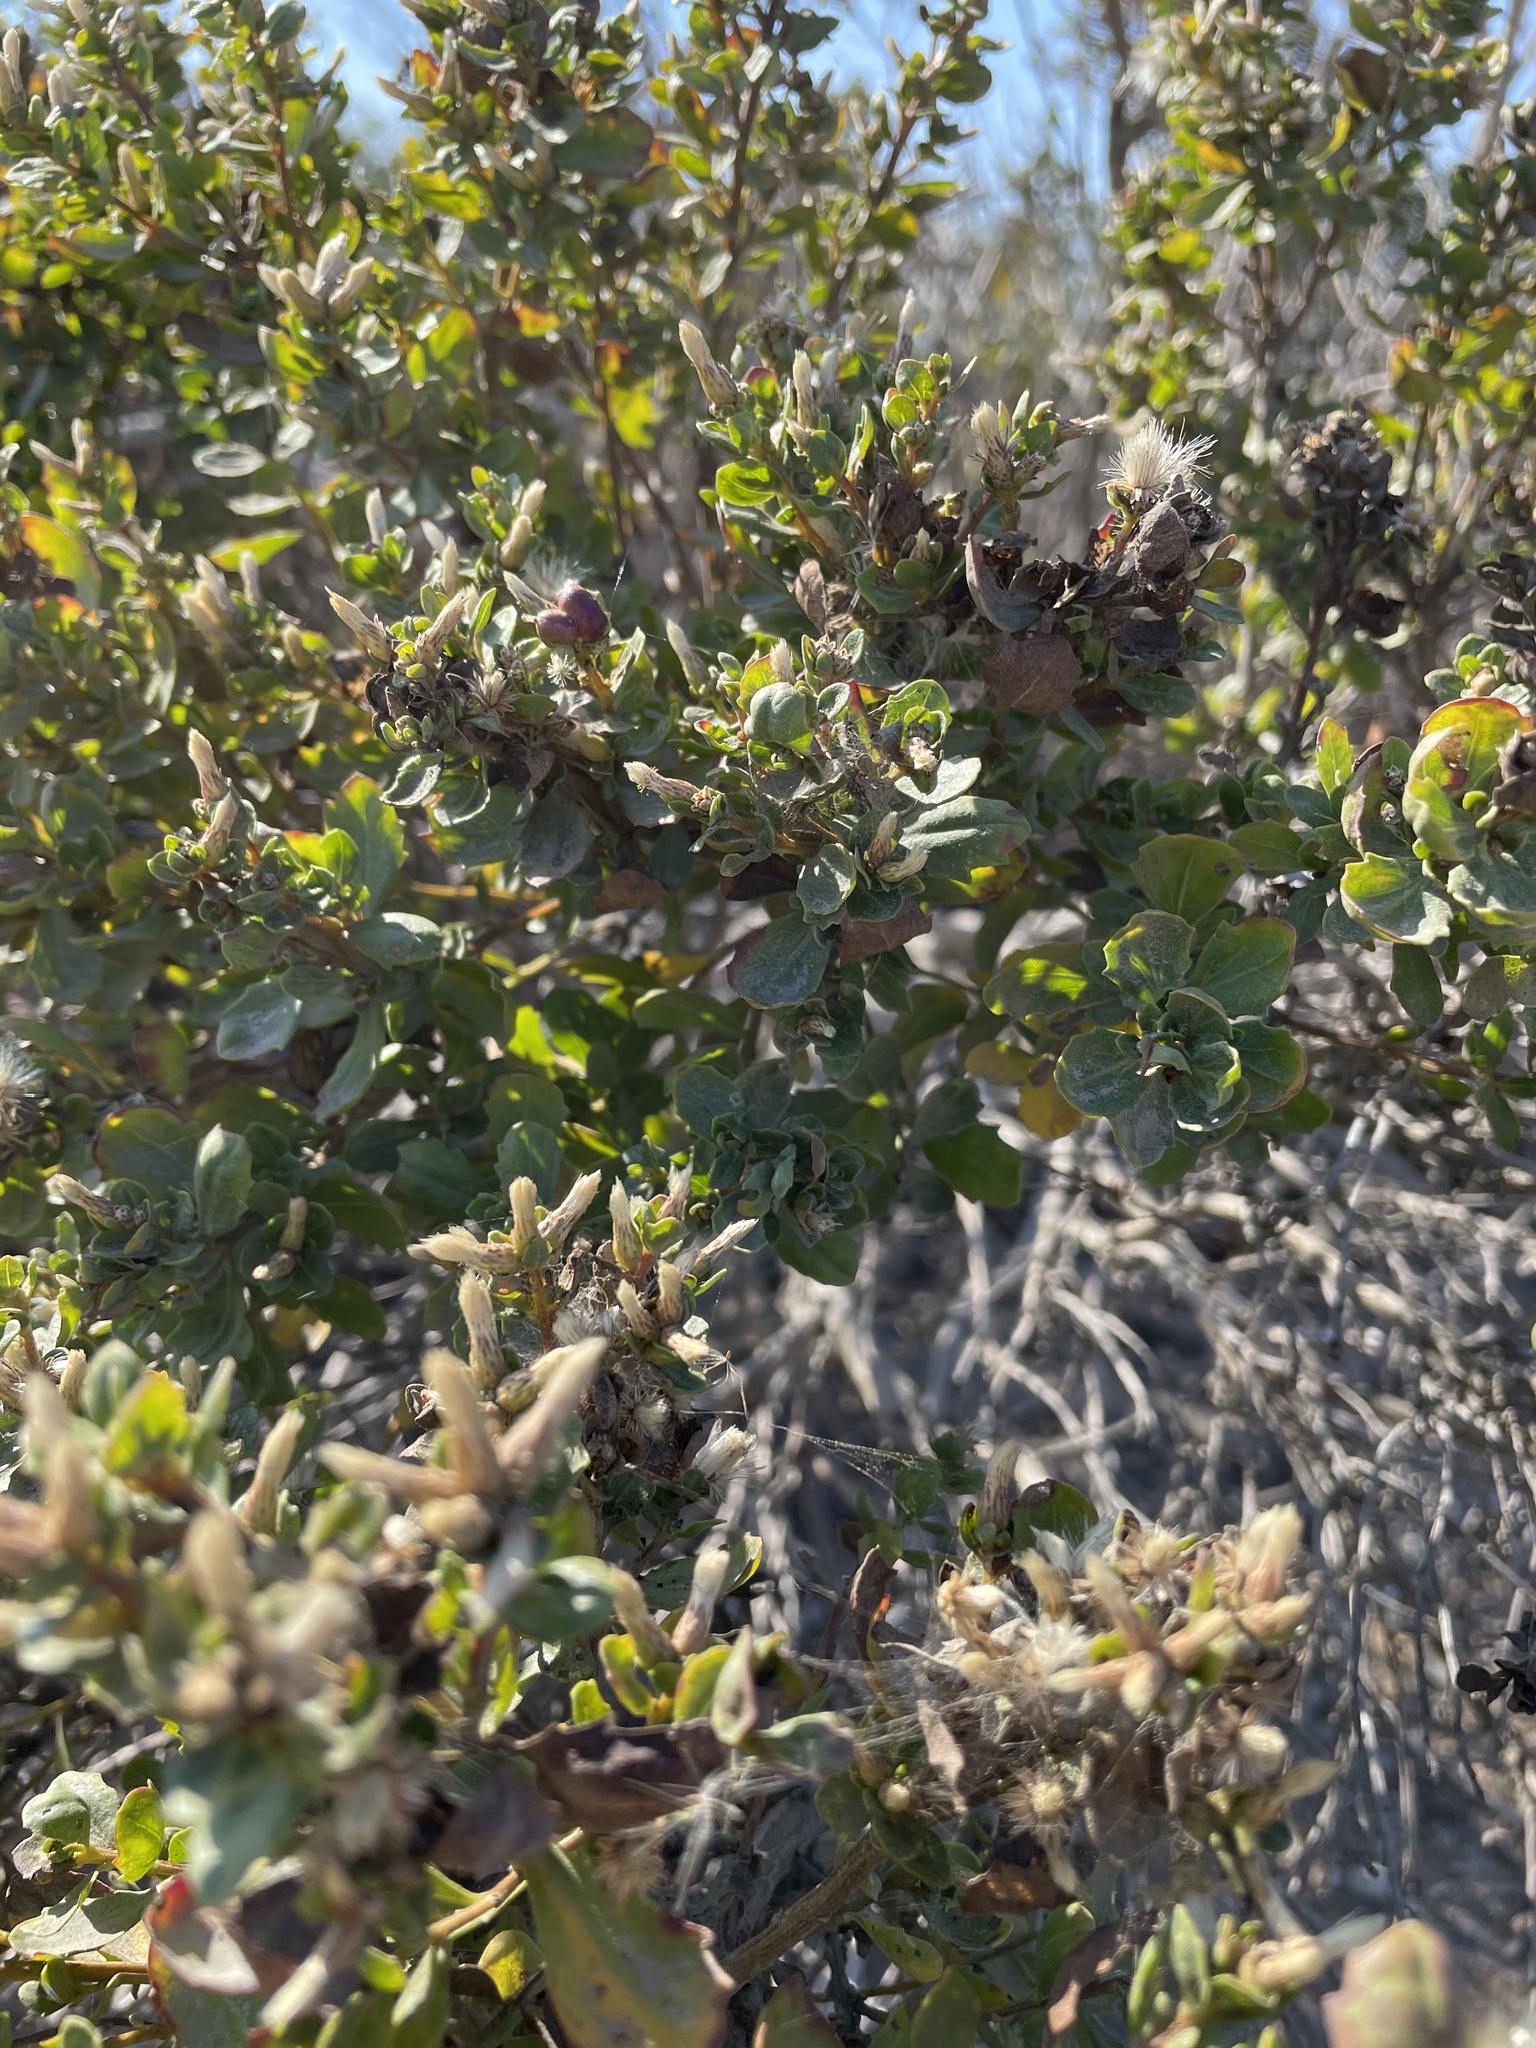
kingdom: Plantae
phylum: Tracheophyta
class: Magnoliopsida
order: Asterales
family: Asteraceae
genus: Baccharis
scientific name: Baccharis pilularis
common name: Coyotebrush
